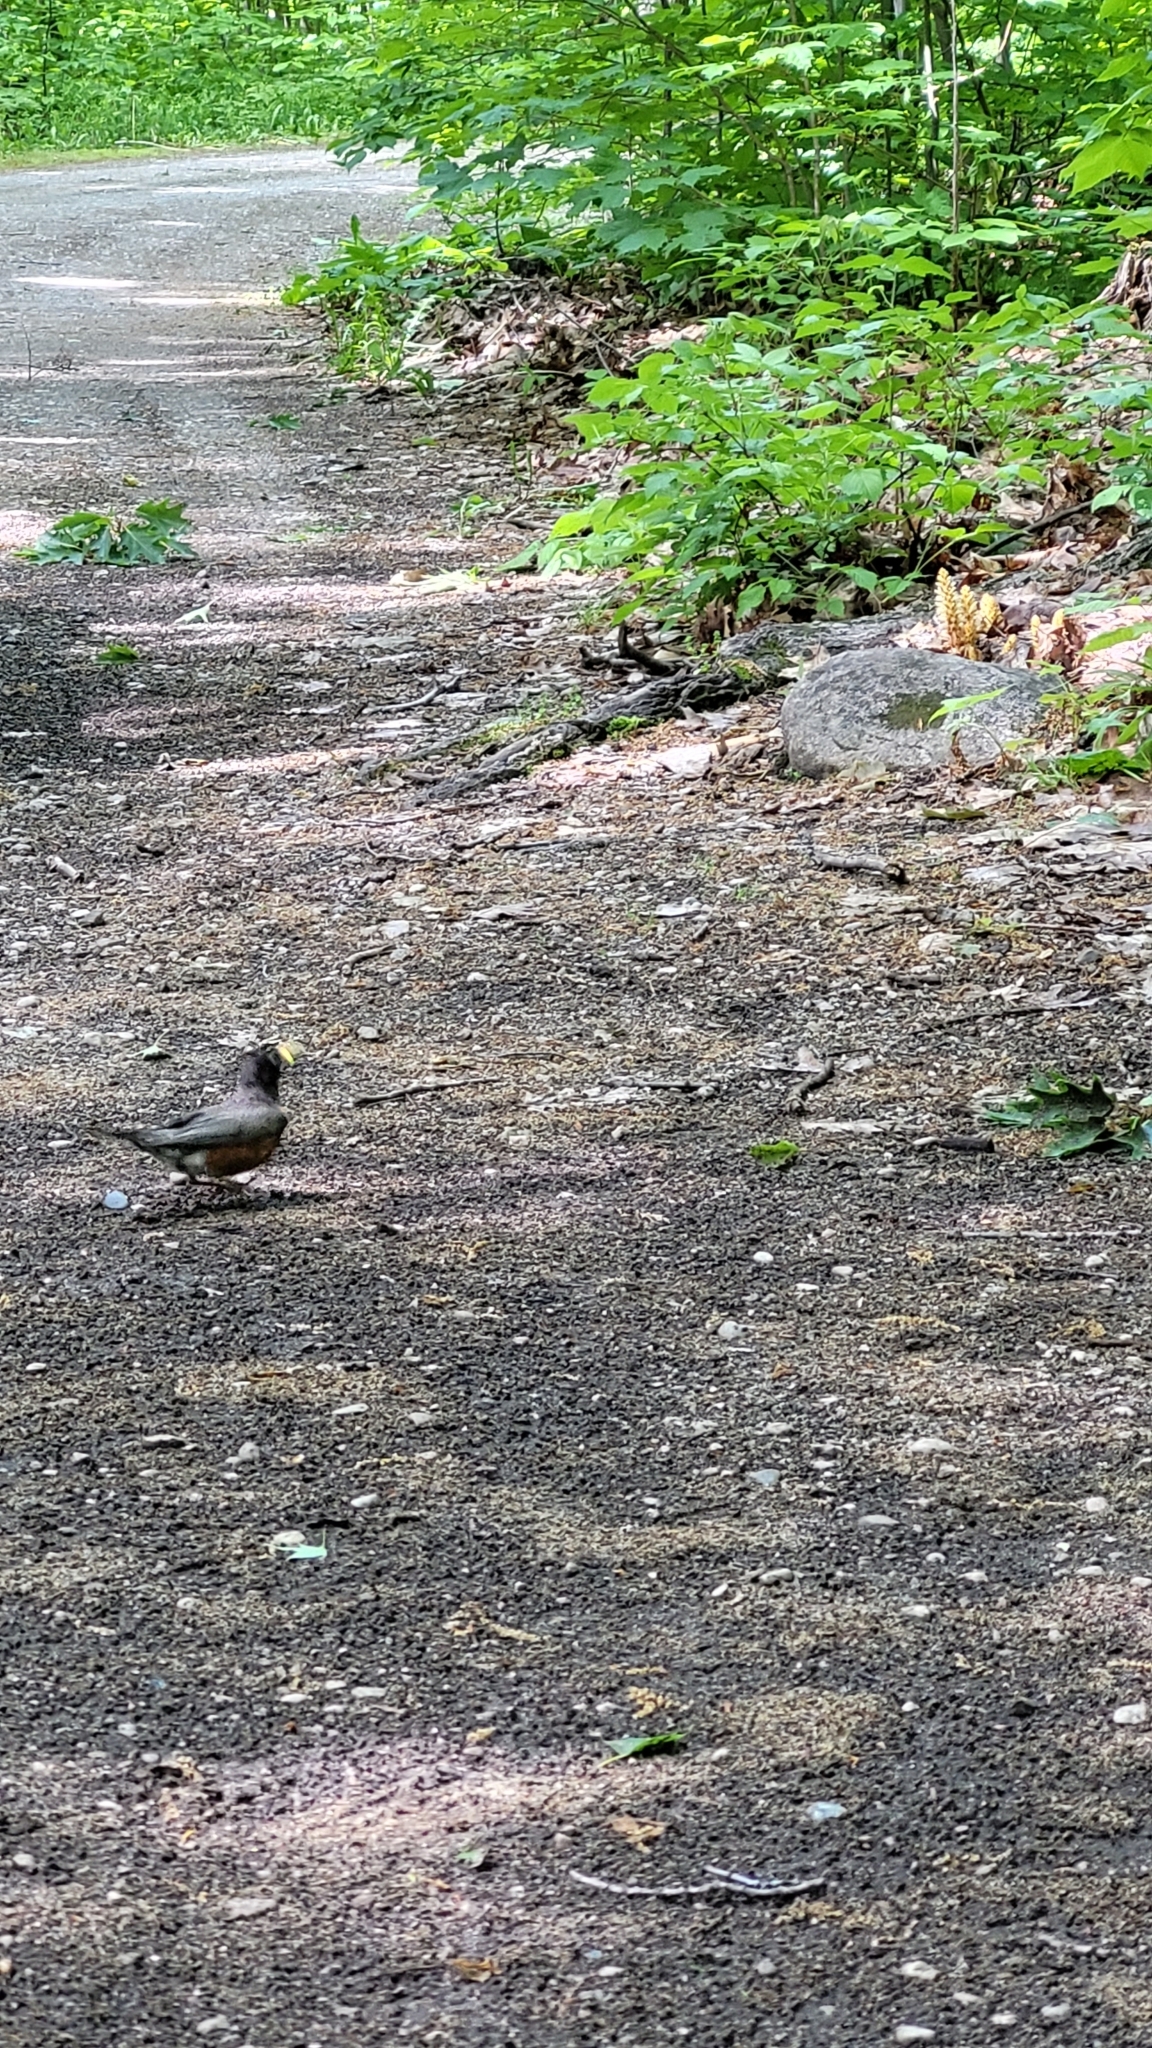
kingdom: Animalia
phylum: Chordata
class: Aves
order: Passeriformes
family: Turdidae
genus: Turdus
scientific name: Turdus migratorius
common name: American robin
